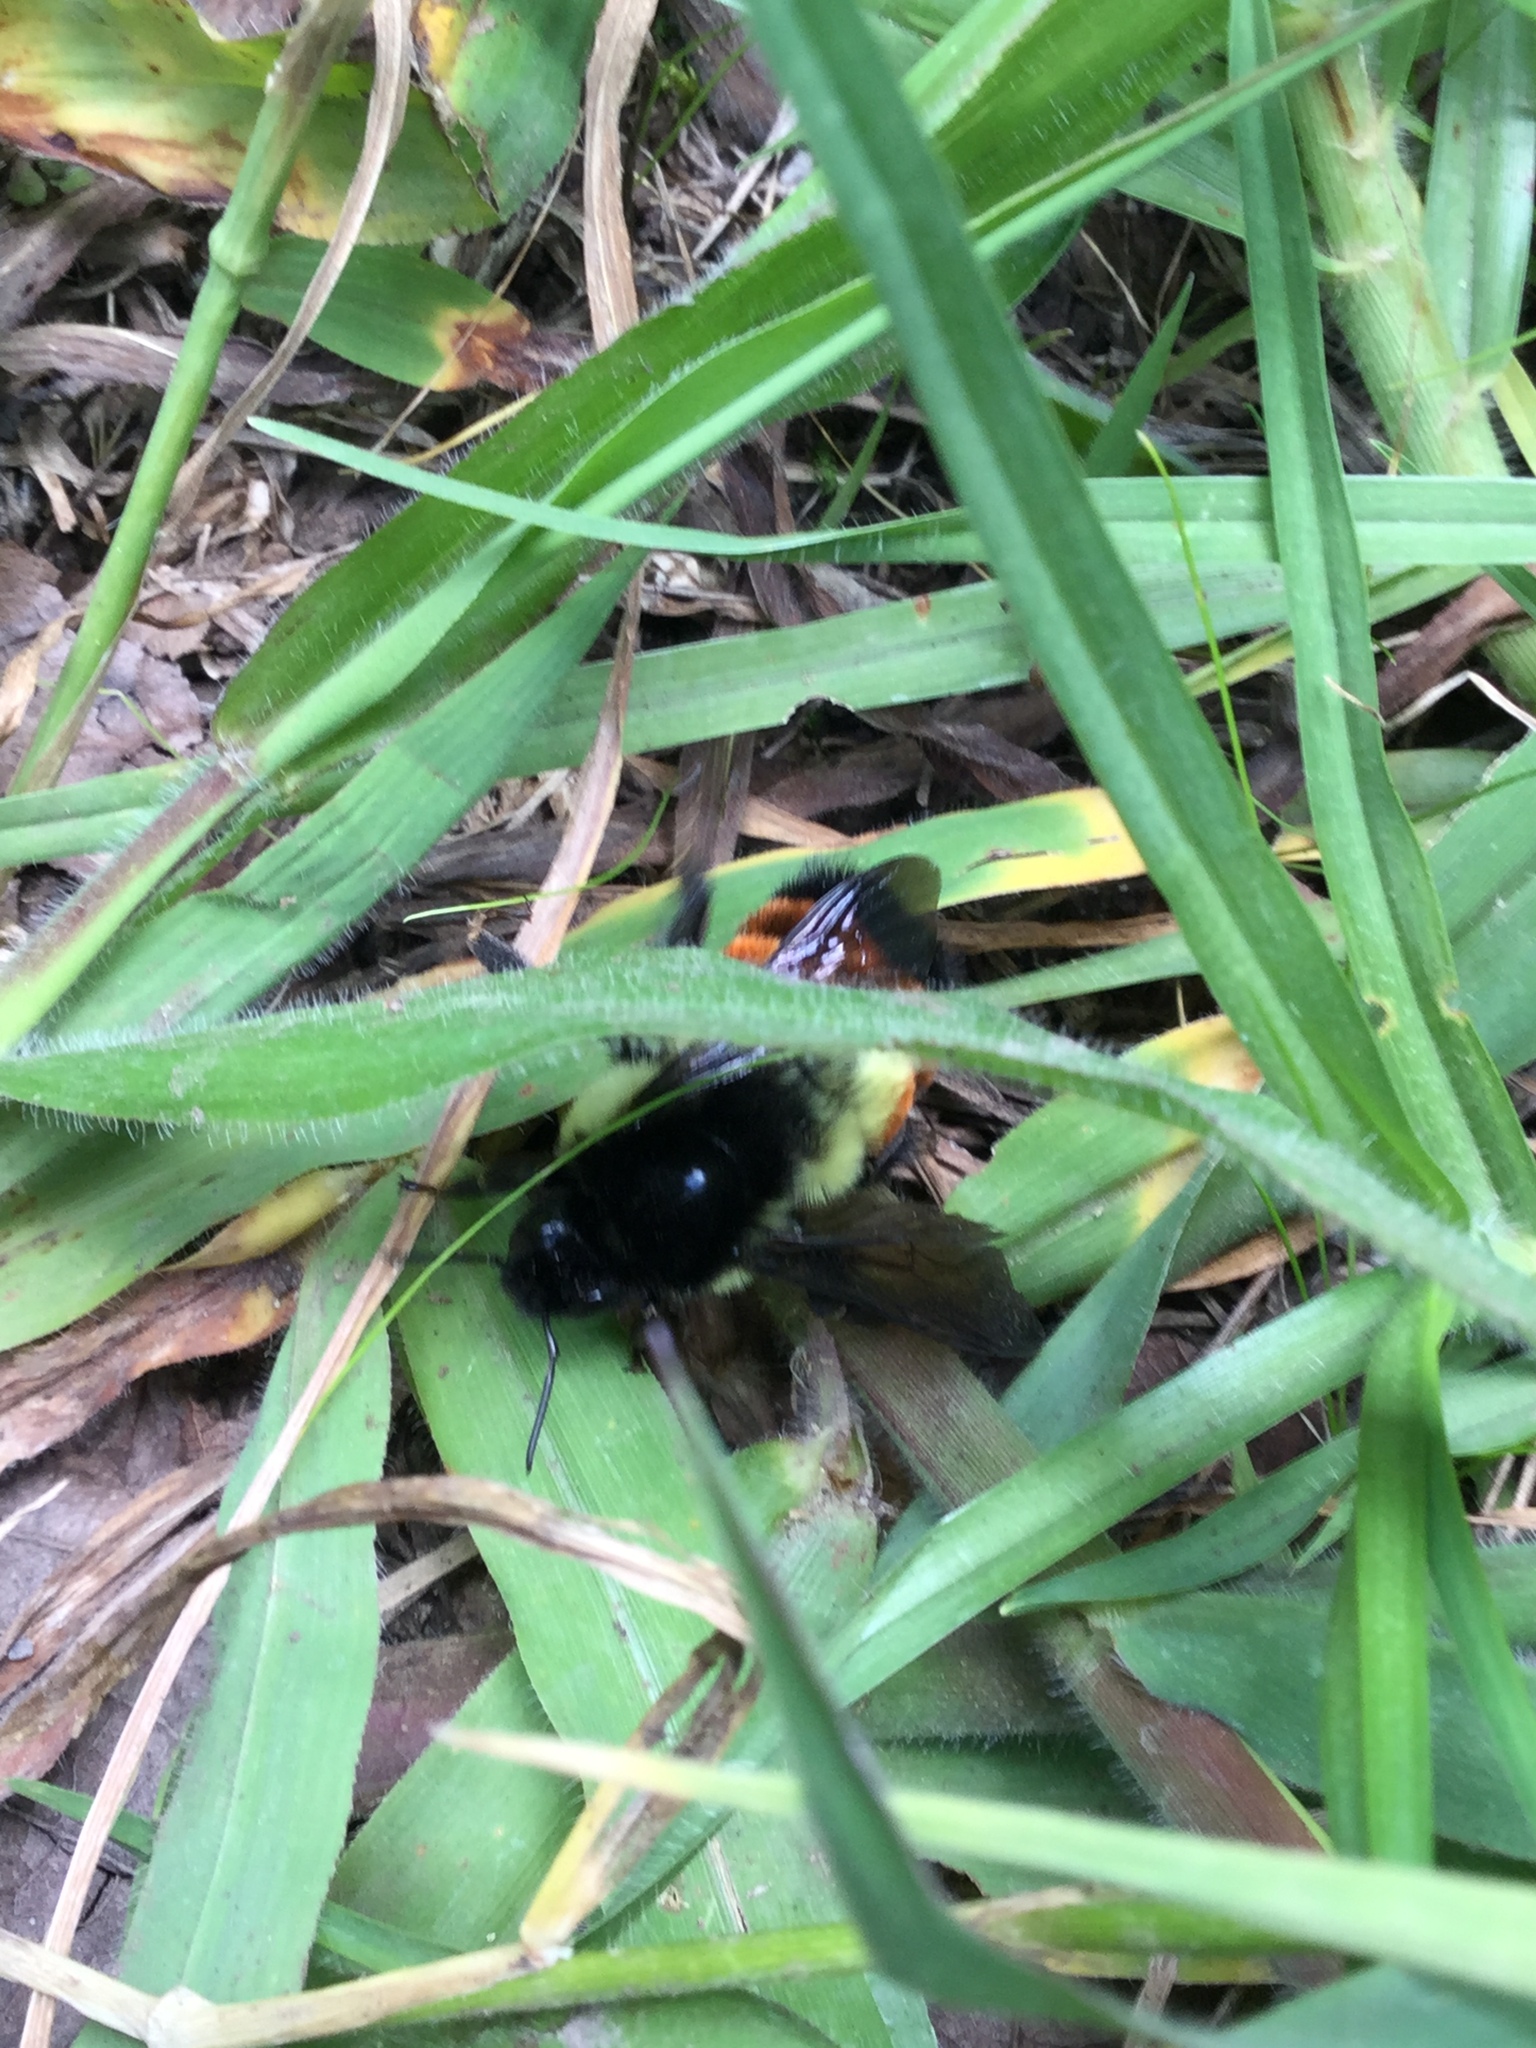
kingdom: Animalia
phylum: Arthropoda
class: Insecta
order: Hymenoptera
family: Apidae
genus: Bombus
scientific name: Bombus ephippiatus
